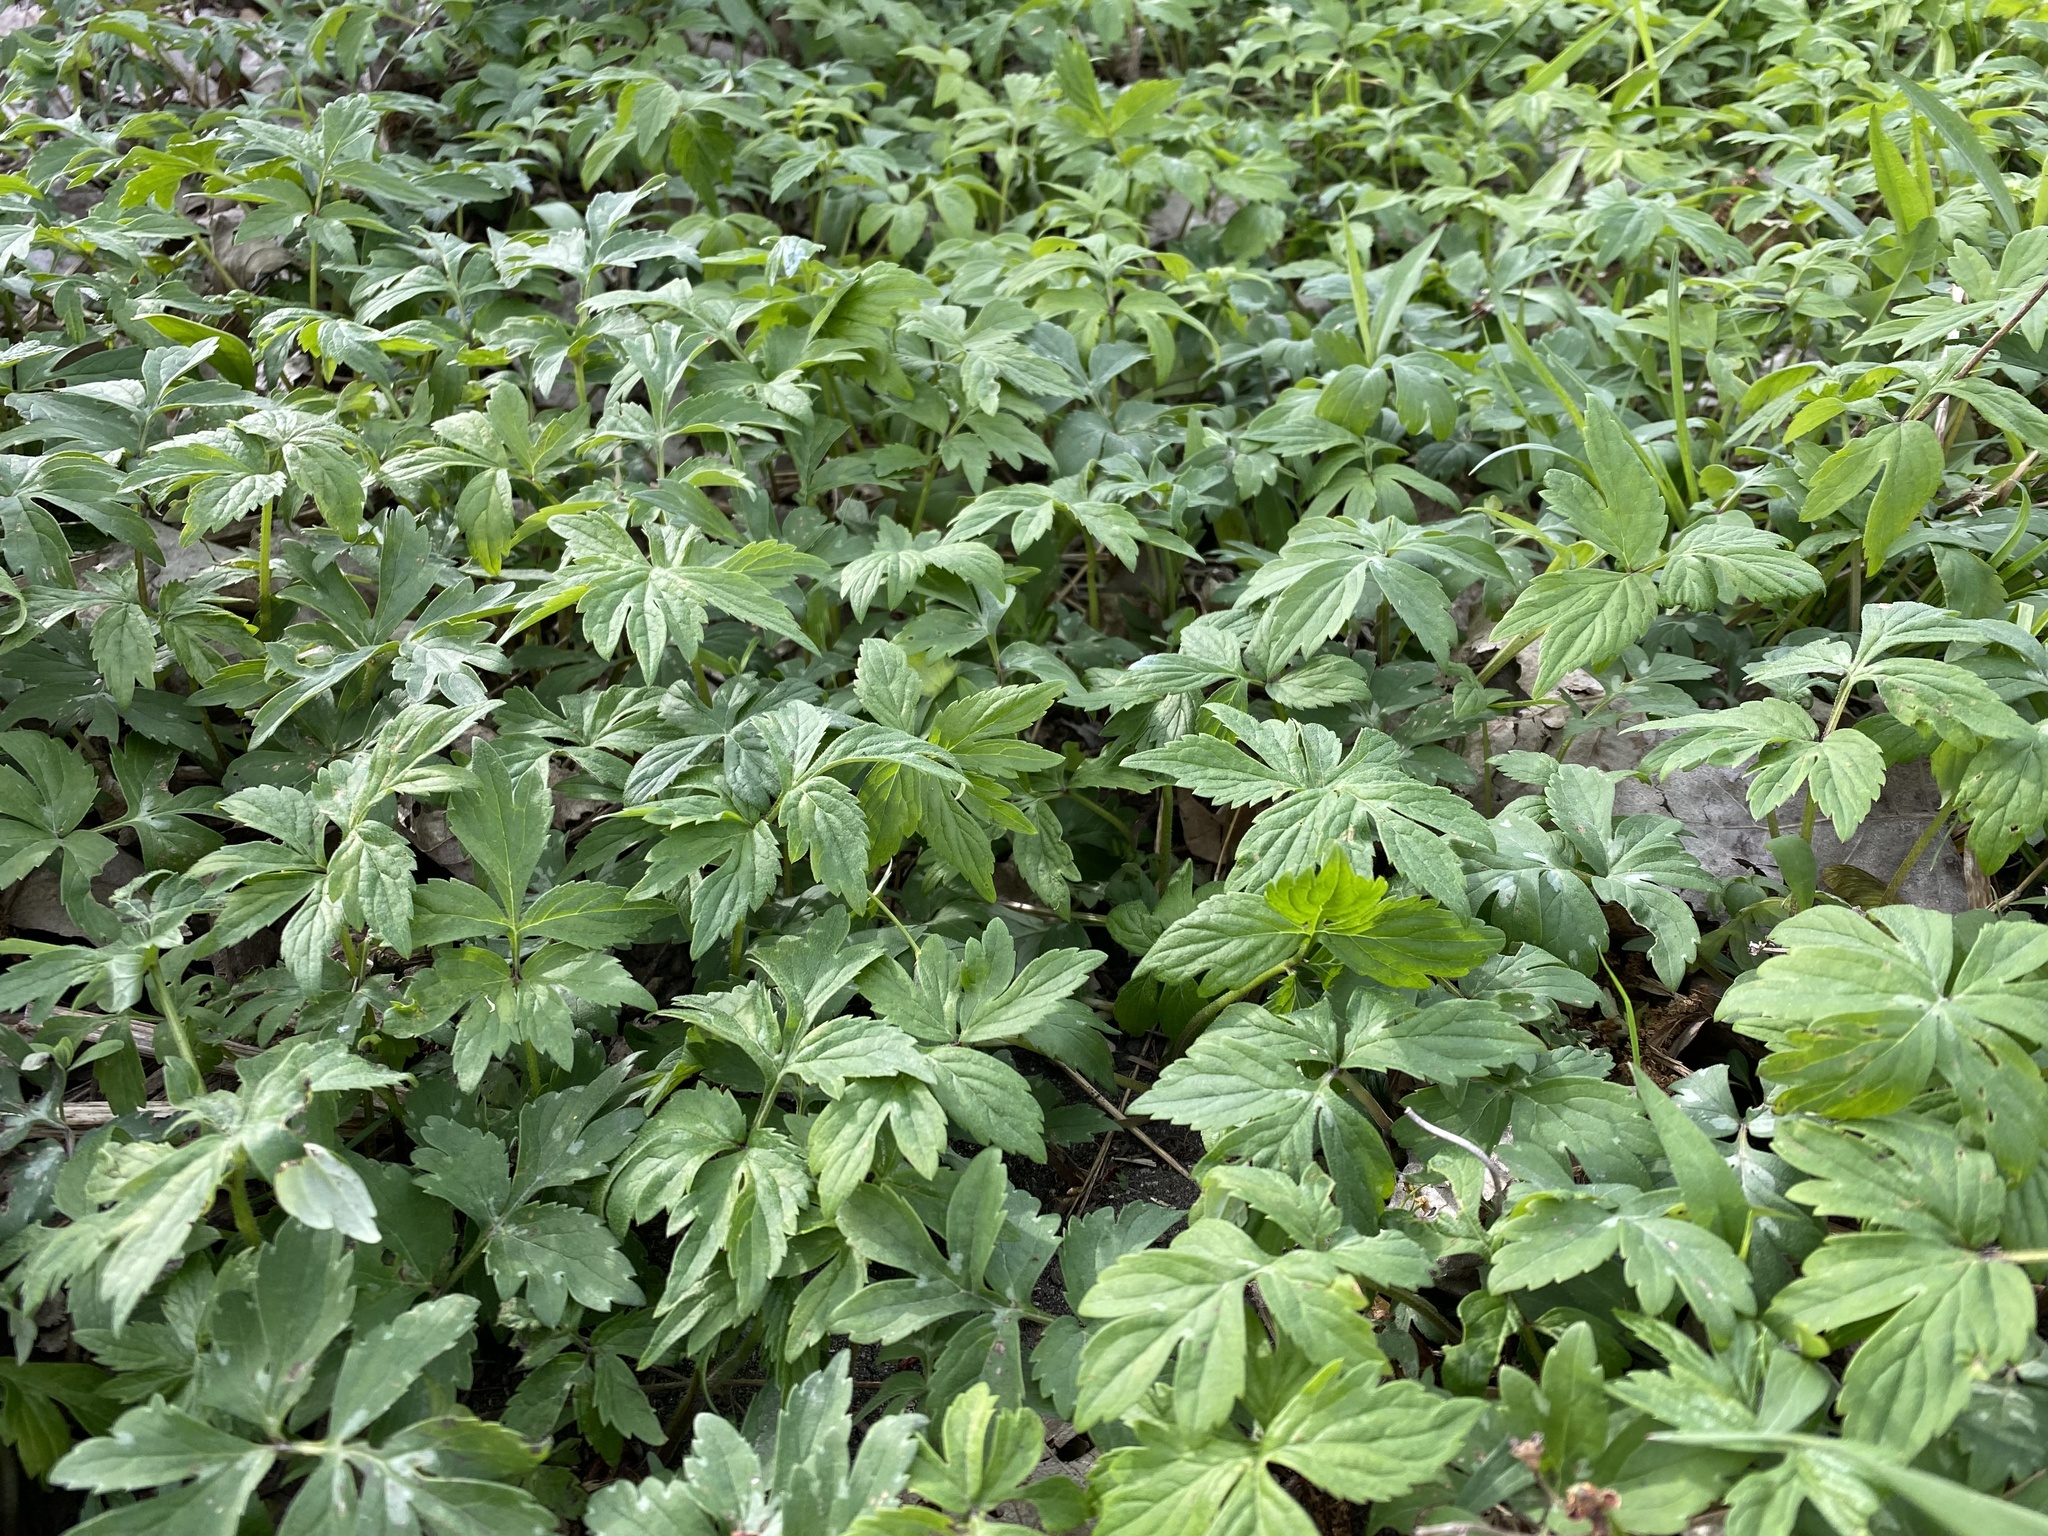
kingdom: Plantae
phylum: Tracheophyta
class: Magnoliopsida
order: Boraginales
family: Hydrophyllaceae
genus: Hydrophyllum
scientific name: Hydrophyllum virginianum
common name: Virginia waterleaf
